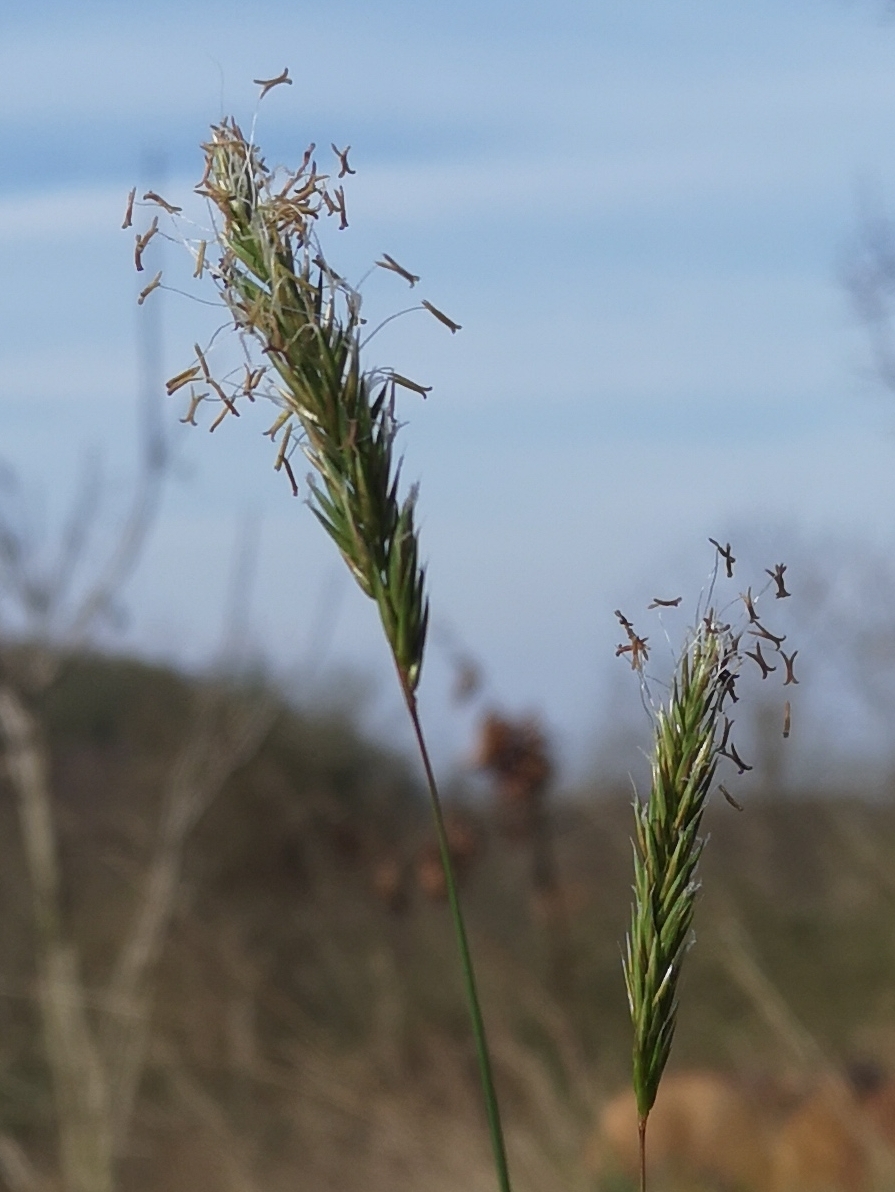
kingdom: Plantae
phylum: Tracheophyta
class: Liliopsida
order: Poales
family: Poaceae
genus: Anthoxanthum
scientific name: Anthoxanthum odoratum
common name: Sweet vernalgrass
